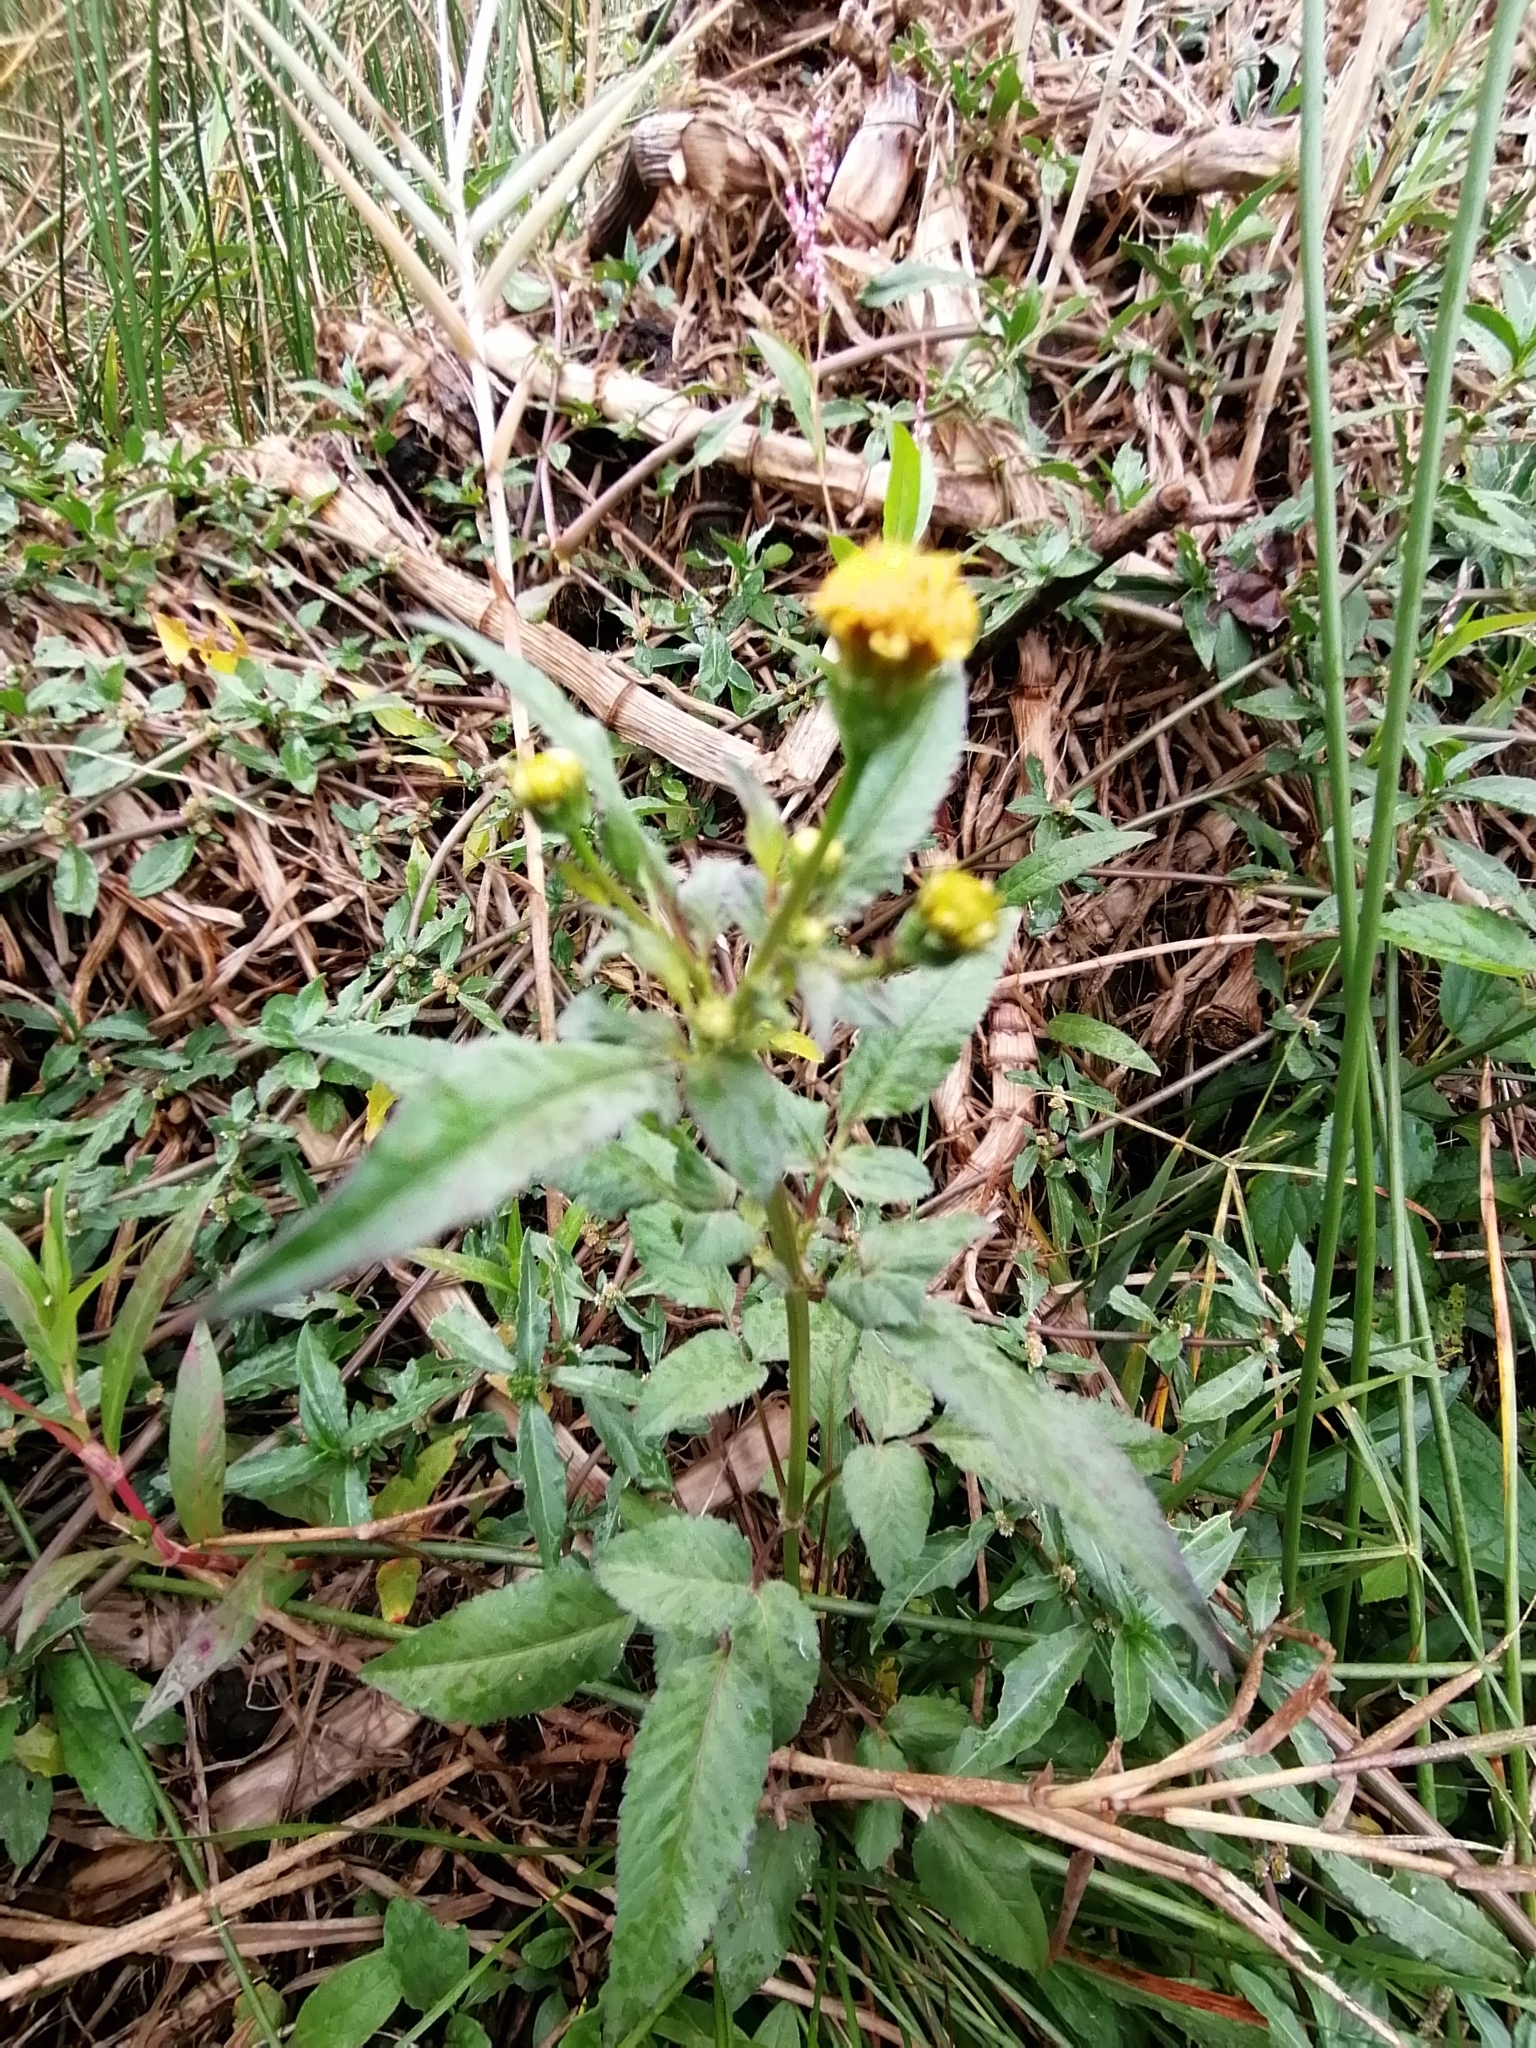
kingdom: Plantae
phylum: Tracheophyta
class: Magnoliopsida
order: Asterales
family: Asteraceae
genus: Bidens
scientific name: Bidens pilosa
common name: Black-jack
